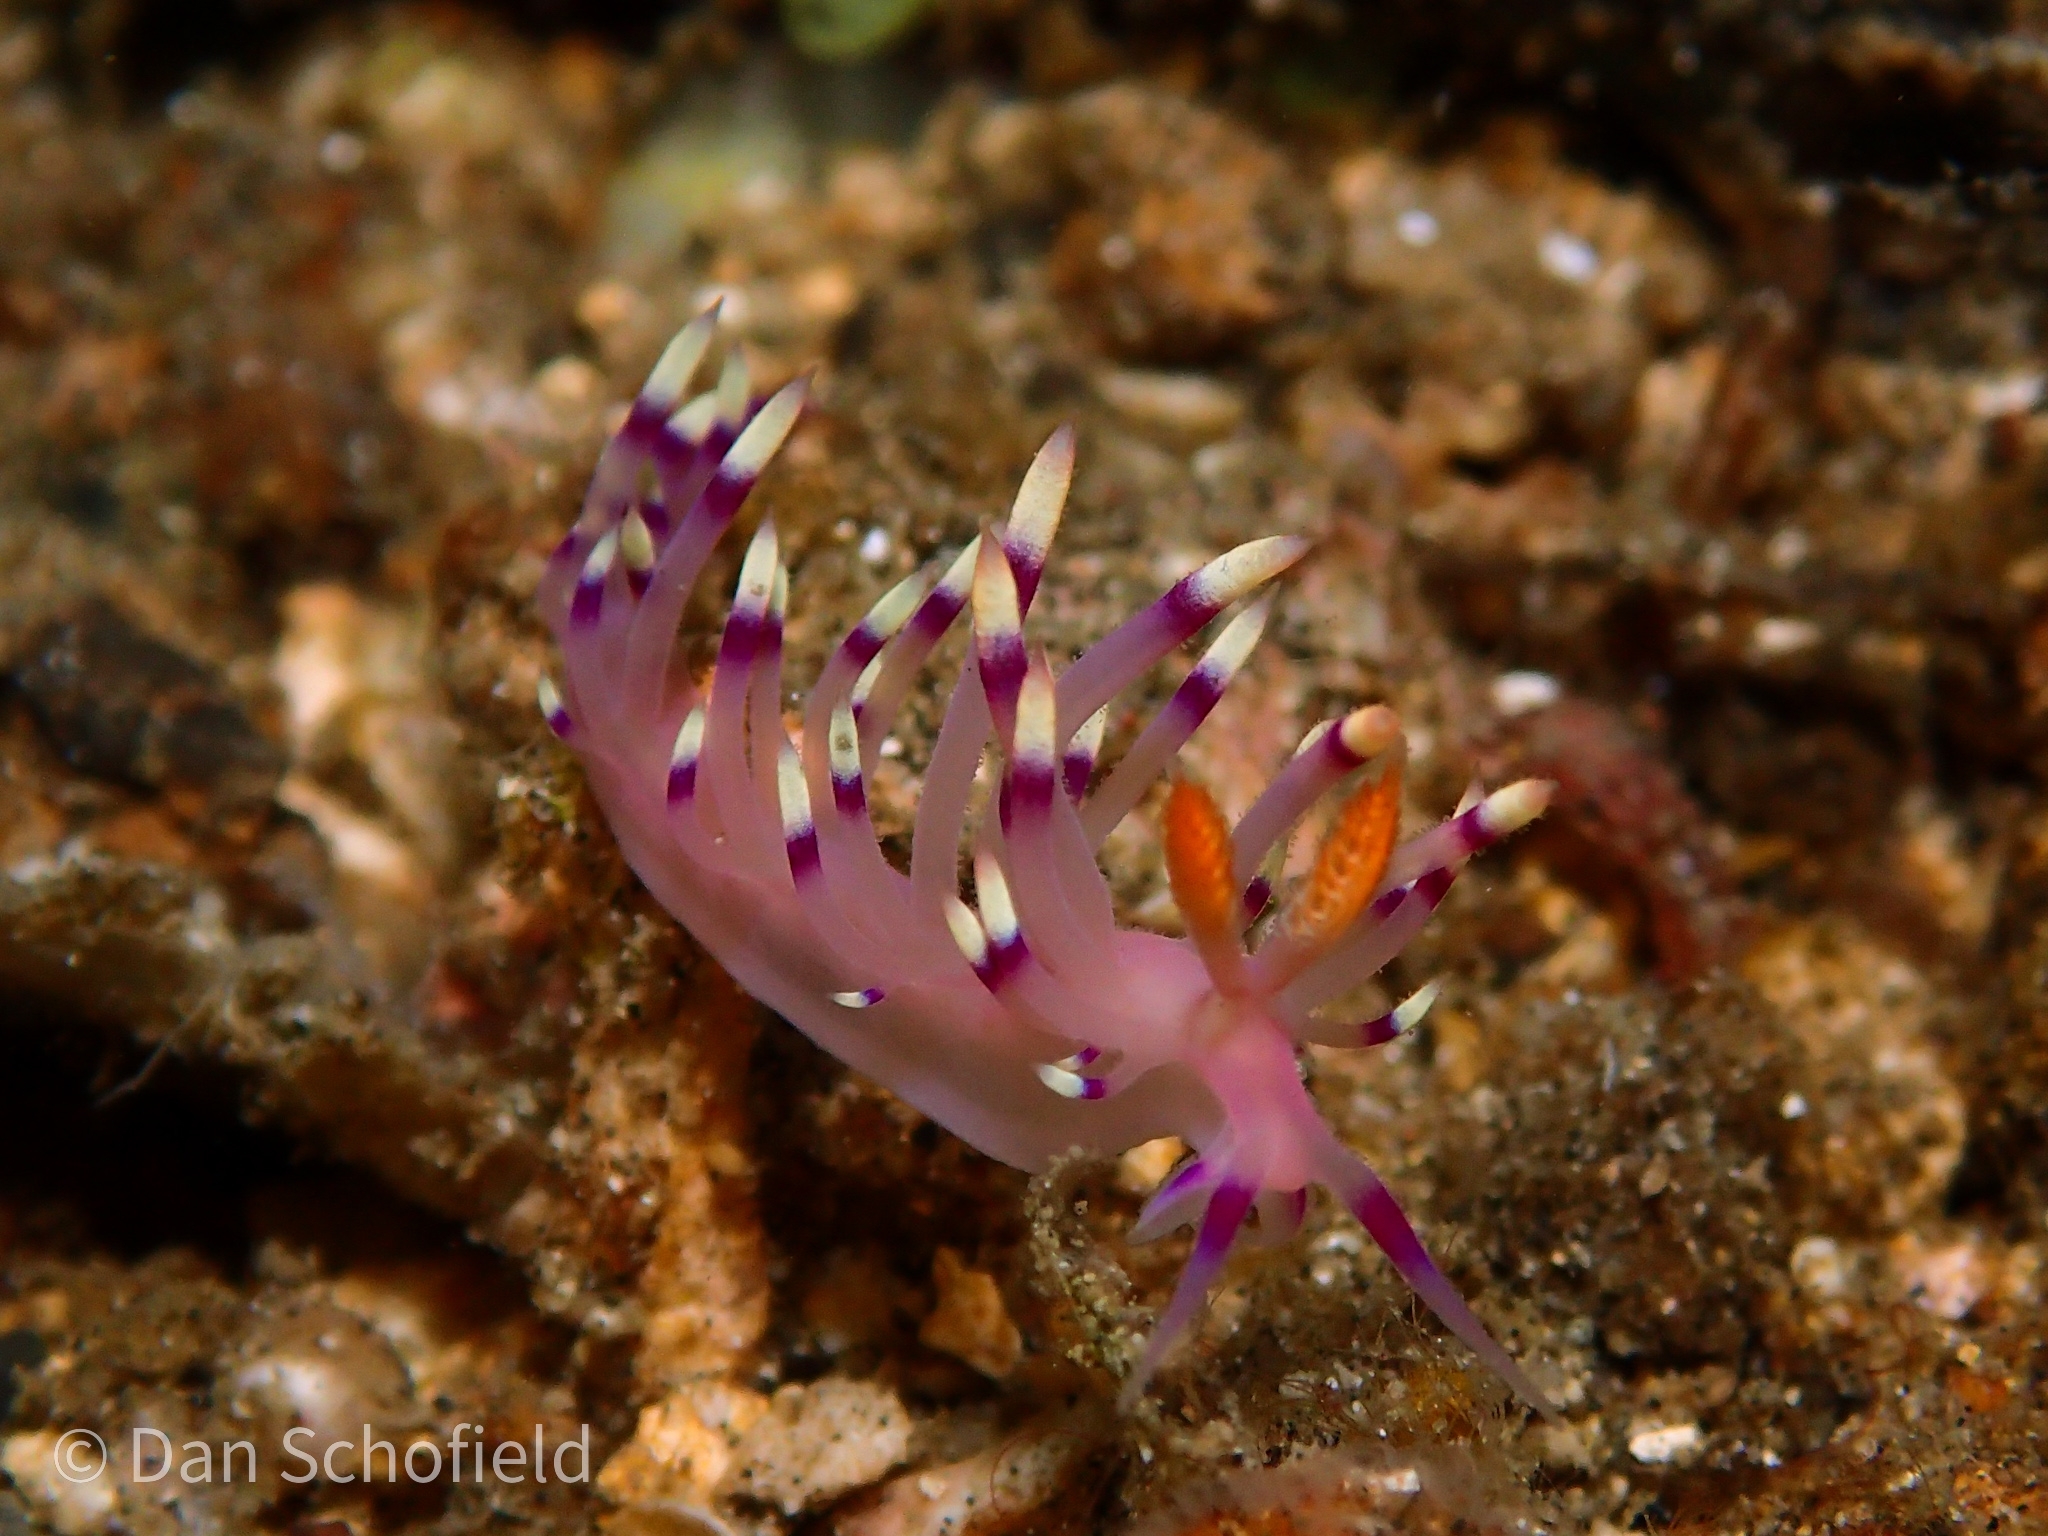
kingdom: Animalia
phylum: Mollusca
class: Gastropoda
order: Nudibranchia
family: Flabellinidae
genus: Coryphellina
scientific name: Coryphellina exoptata
